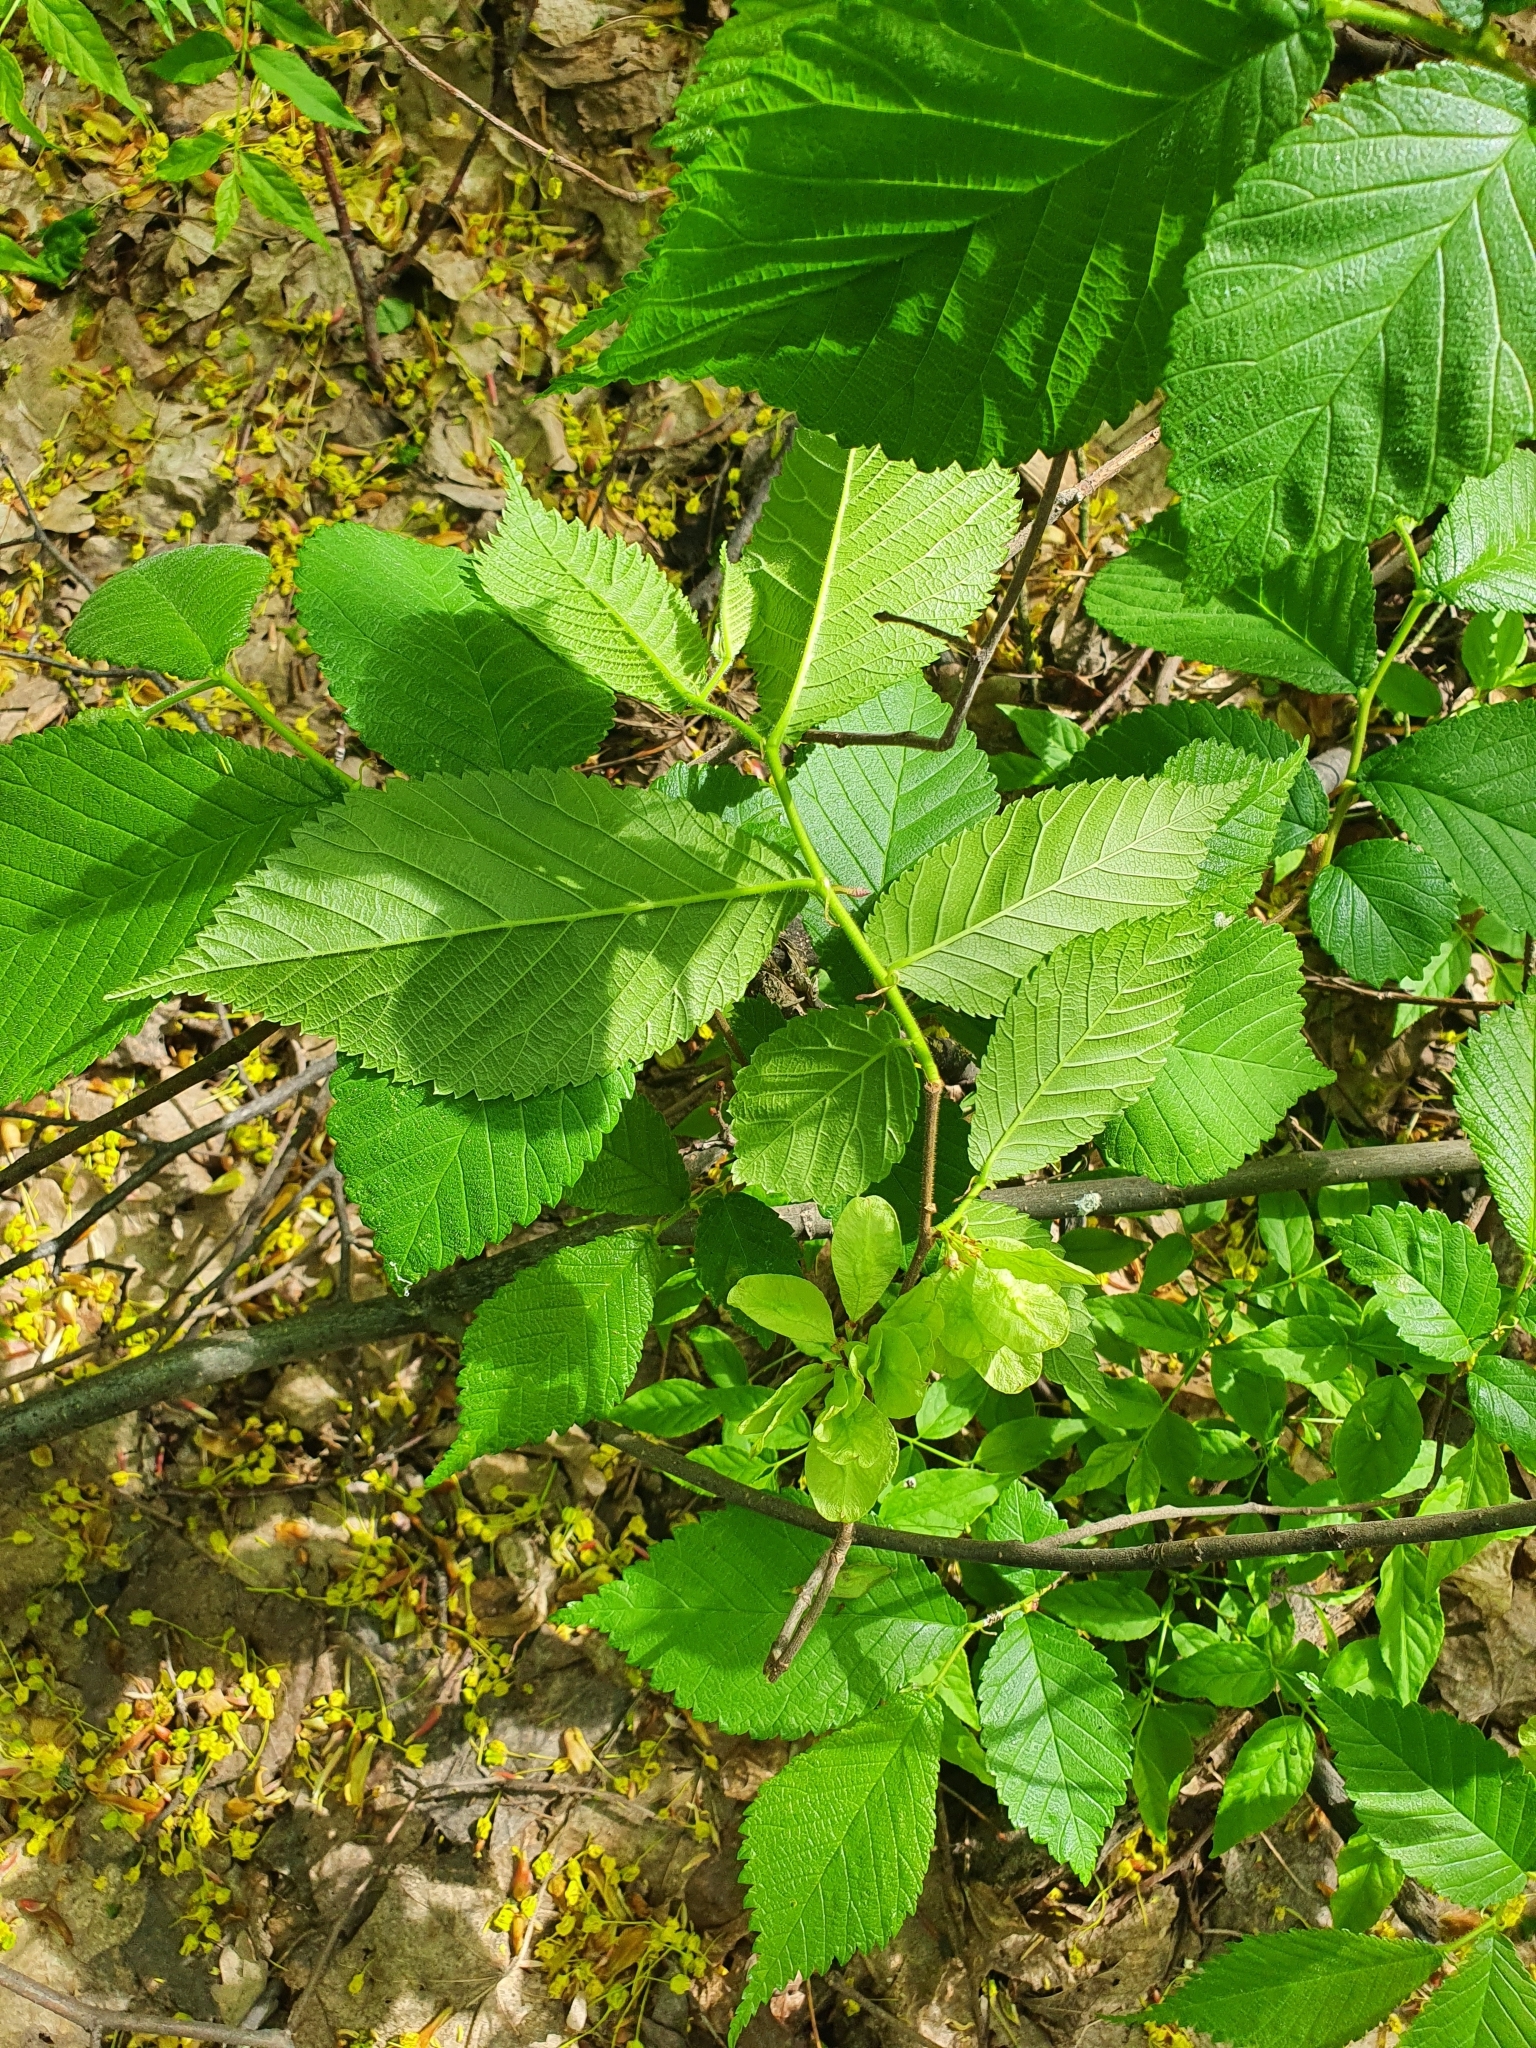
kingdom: Plantae
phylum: Tracheophyta
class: Magnoliopsida
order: Rosales
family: Ulmaceae
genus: Ulmus
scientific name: Ulmus glabra
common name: Wych elm
